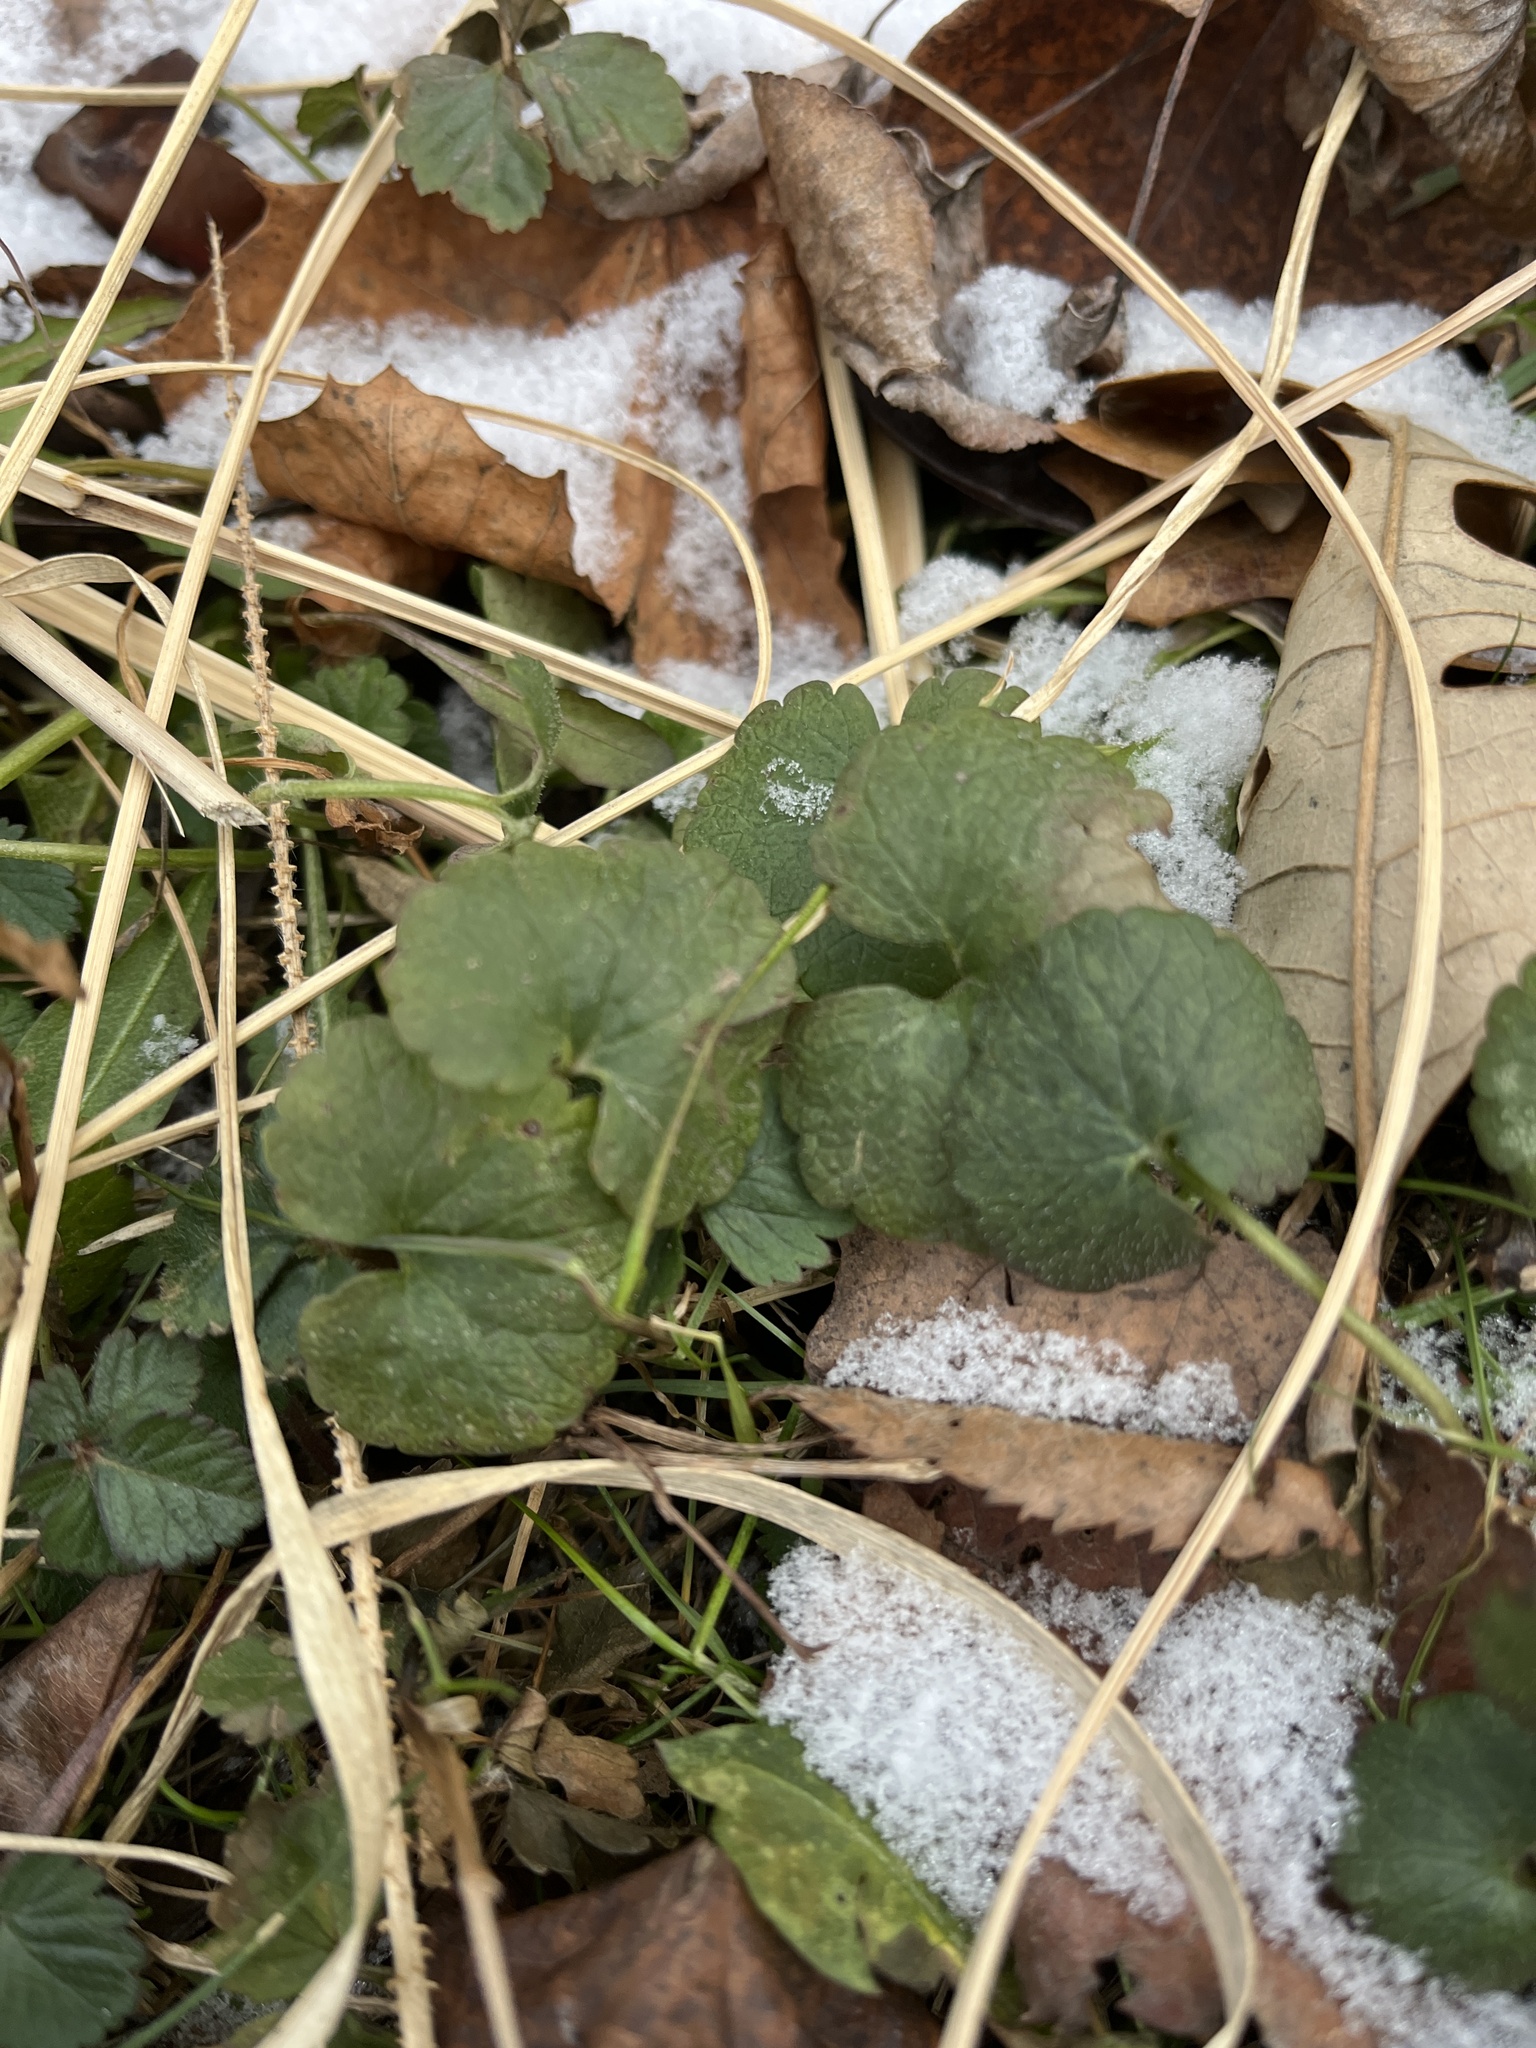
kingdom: Plantae
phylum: Tracheophyta
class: Magnoliopsida
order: Brassicales
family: Brassicaceae
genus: Alliaria
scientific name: Alliaria petiolata
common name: Garlic mustard
